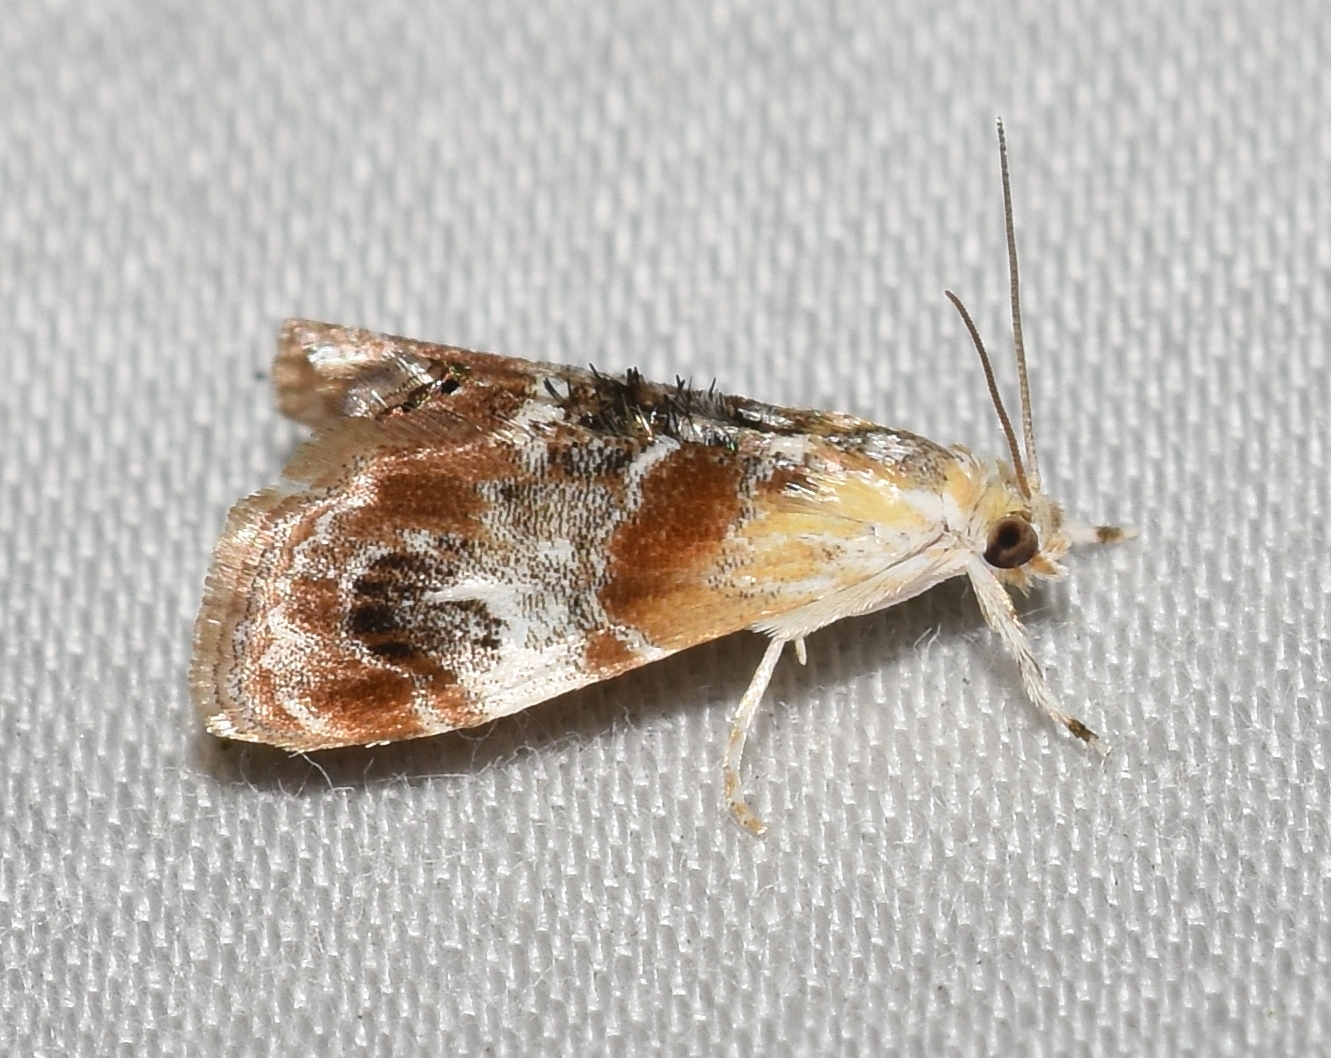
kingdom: Animalia
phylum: Arthropoda
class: Insecta
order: Lepidoptera
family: Crambidae
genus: Dicymolomia
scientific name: Dicymolomia julianalis
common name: Julia's dicymolomia moth
